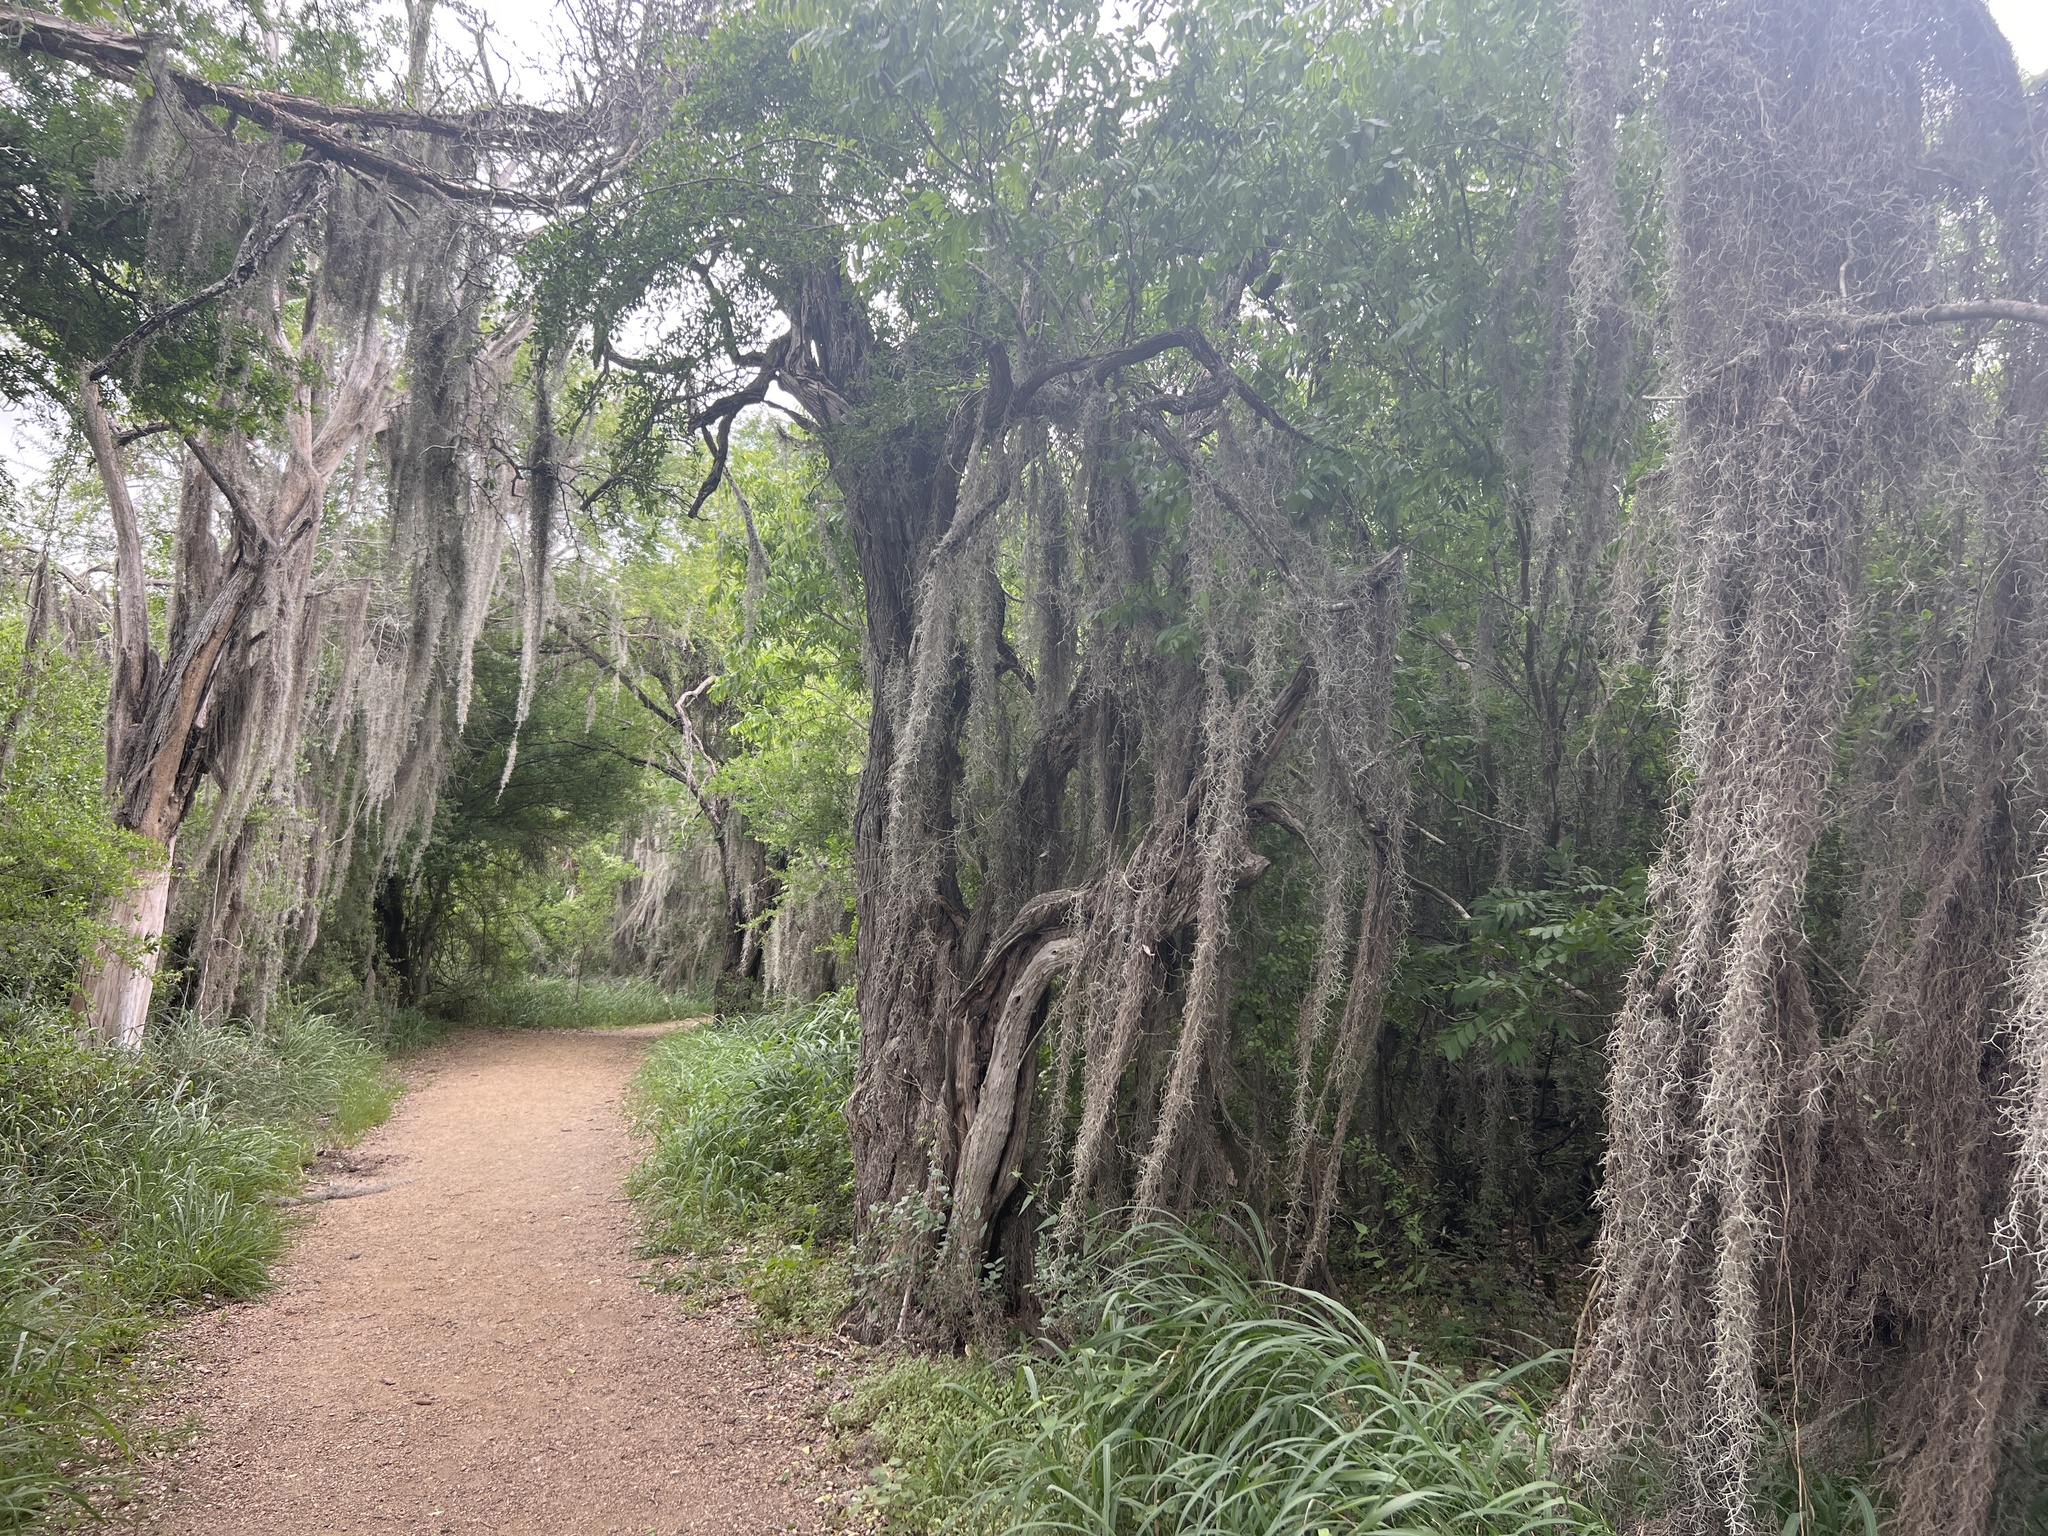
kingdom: Plantae
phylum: Tracheophyta
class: Liliopsida
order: Poales
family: Bromeliaceae
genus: Tillandsia
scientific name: Tillandsia usneoides
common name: Spanish moss
